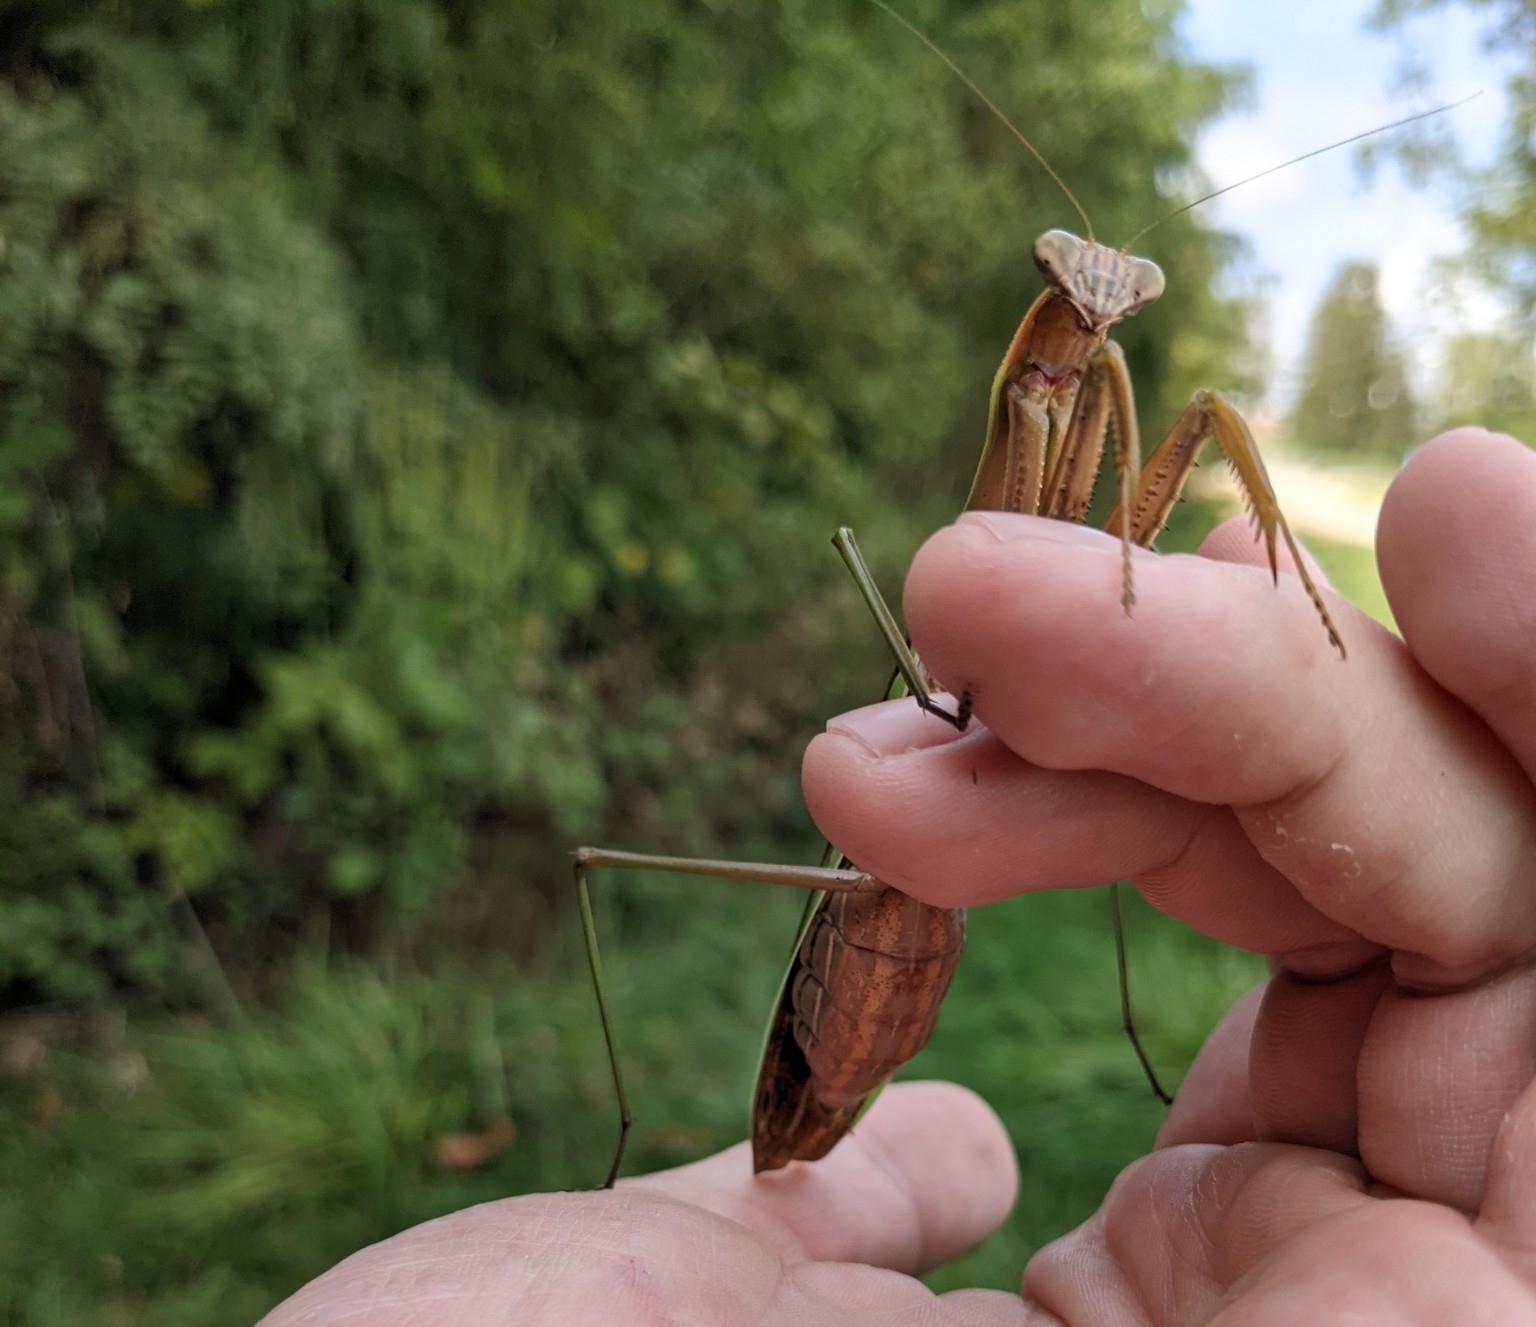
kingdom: Animalia
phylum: Arthropoda
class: Insecta
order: Mantodea
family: Mantidae
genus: Tenodera
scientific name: Tenodera sinensis
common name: Chinese mantis
